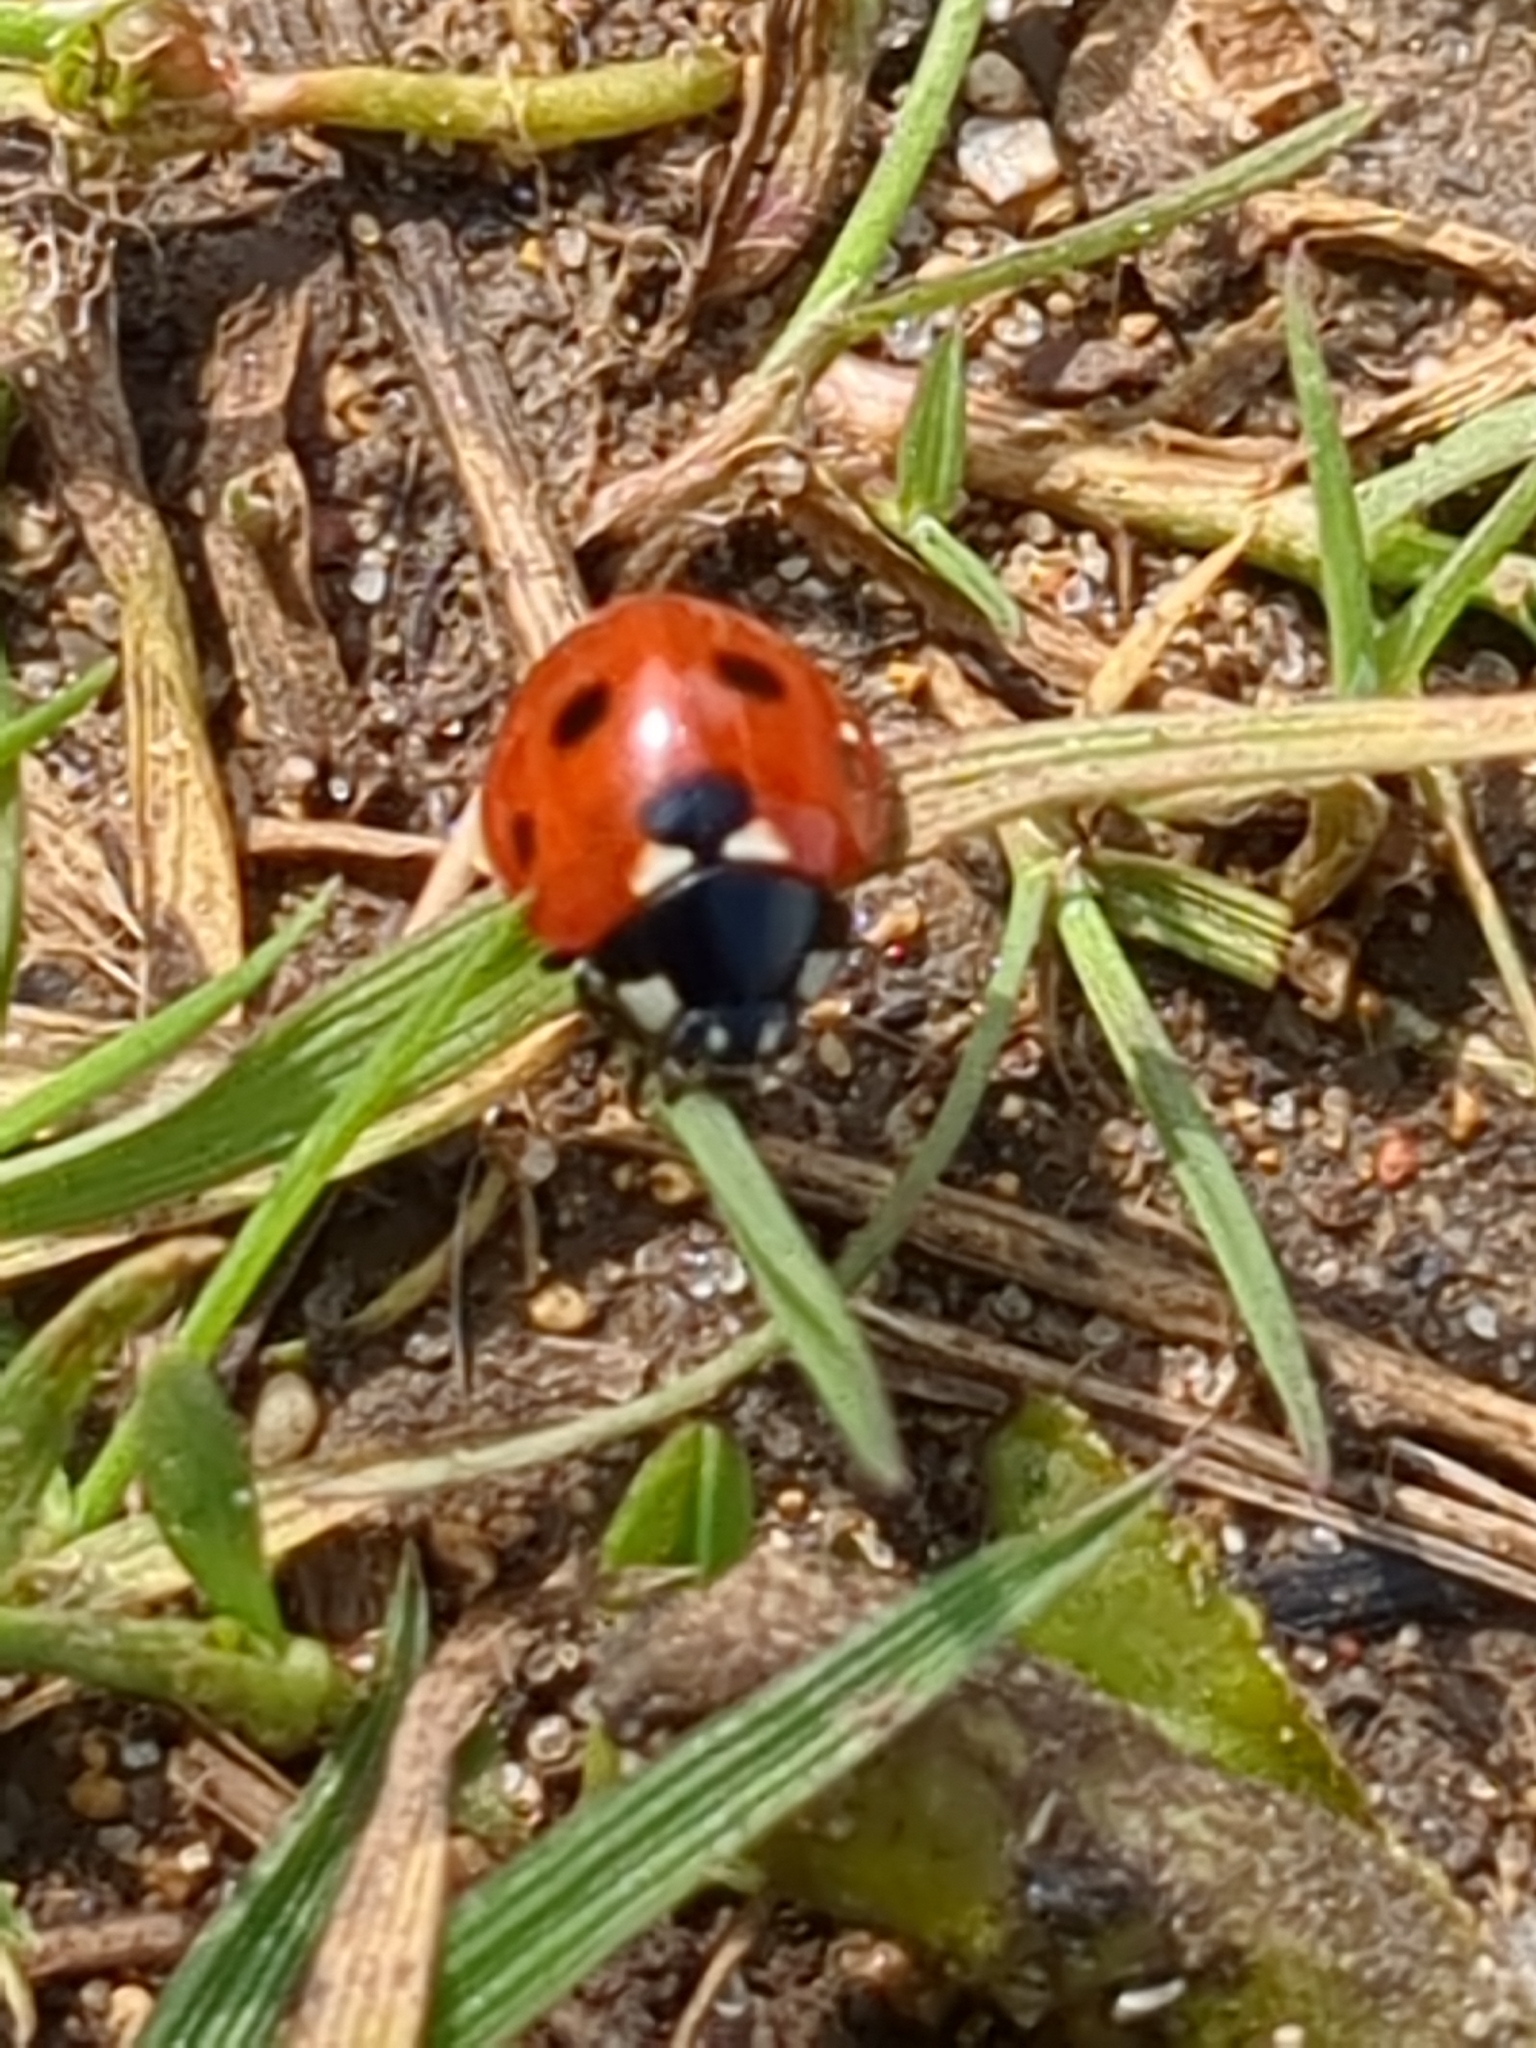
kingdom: Animalia
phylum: Arthropoda
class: Insecta
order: Coleoptera
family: Coccinellidae
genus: Coccinella
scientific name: Coccinella septempunctata
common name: Sevenspotted lady beetle
